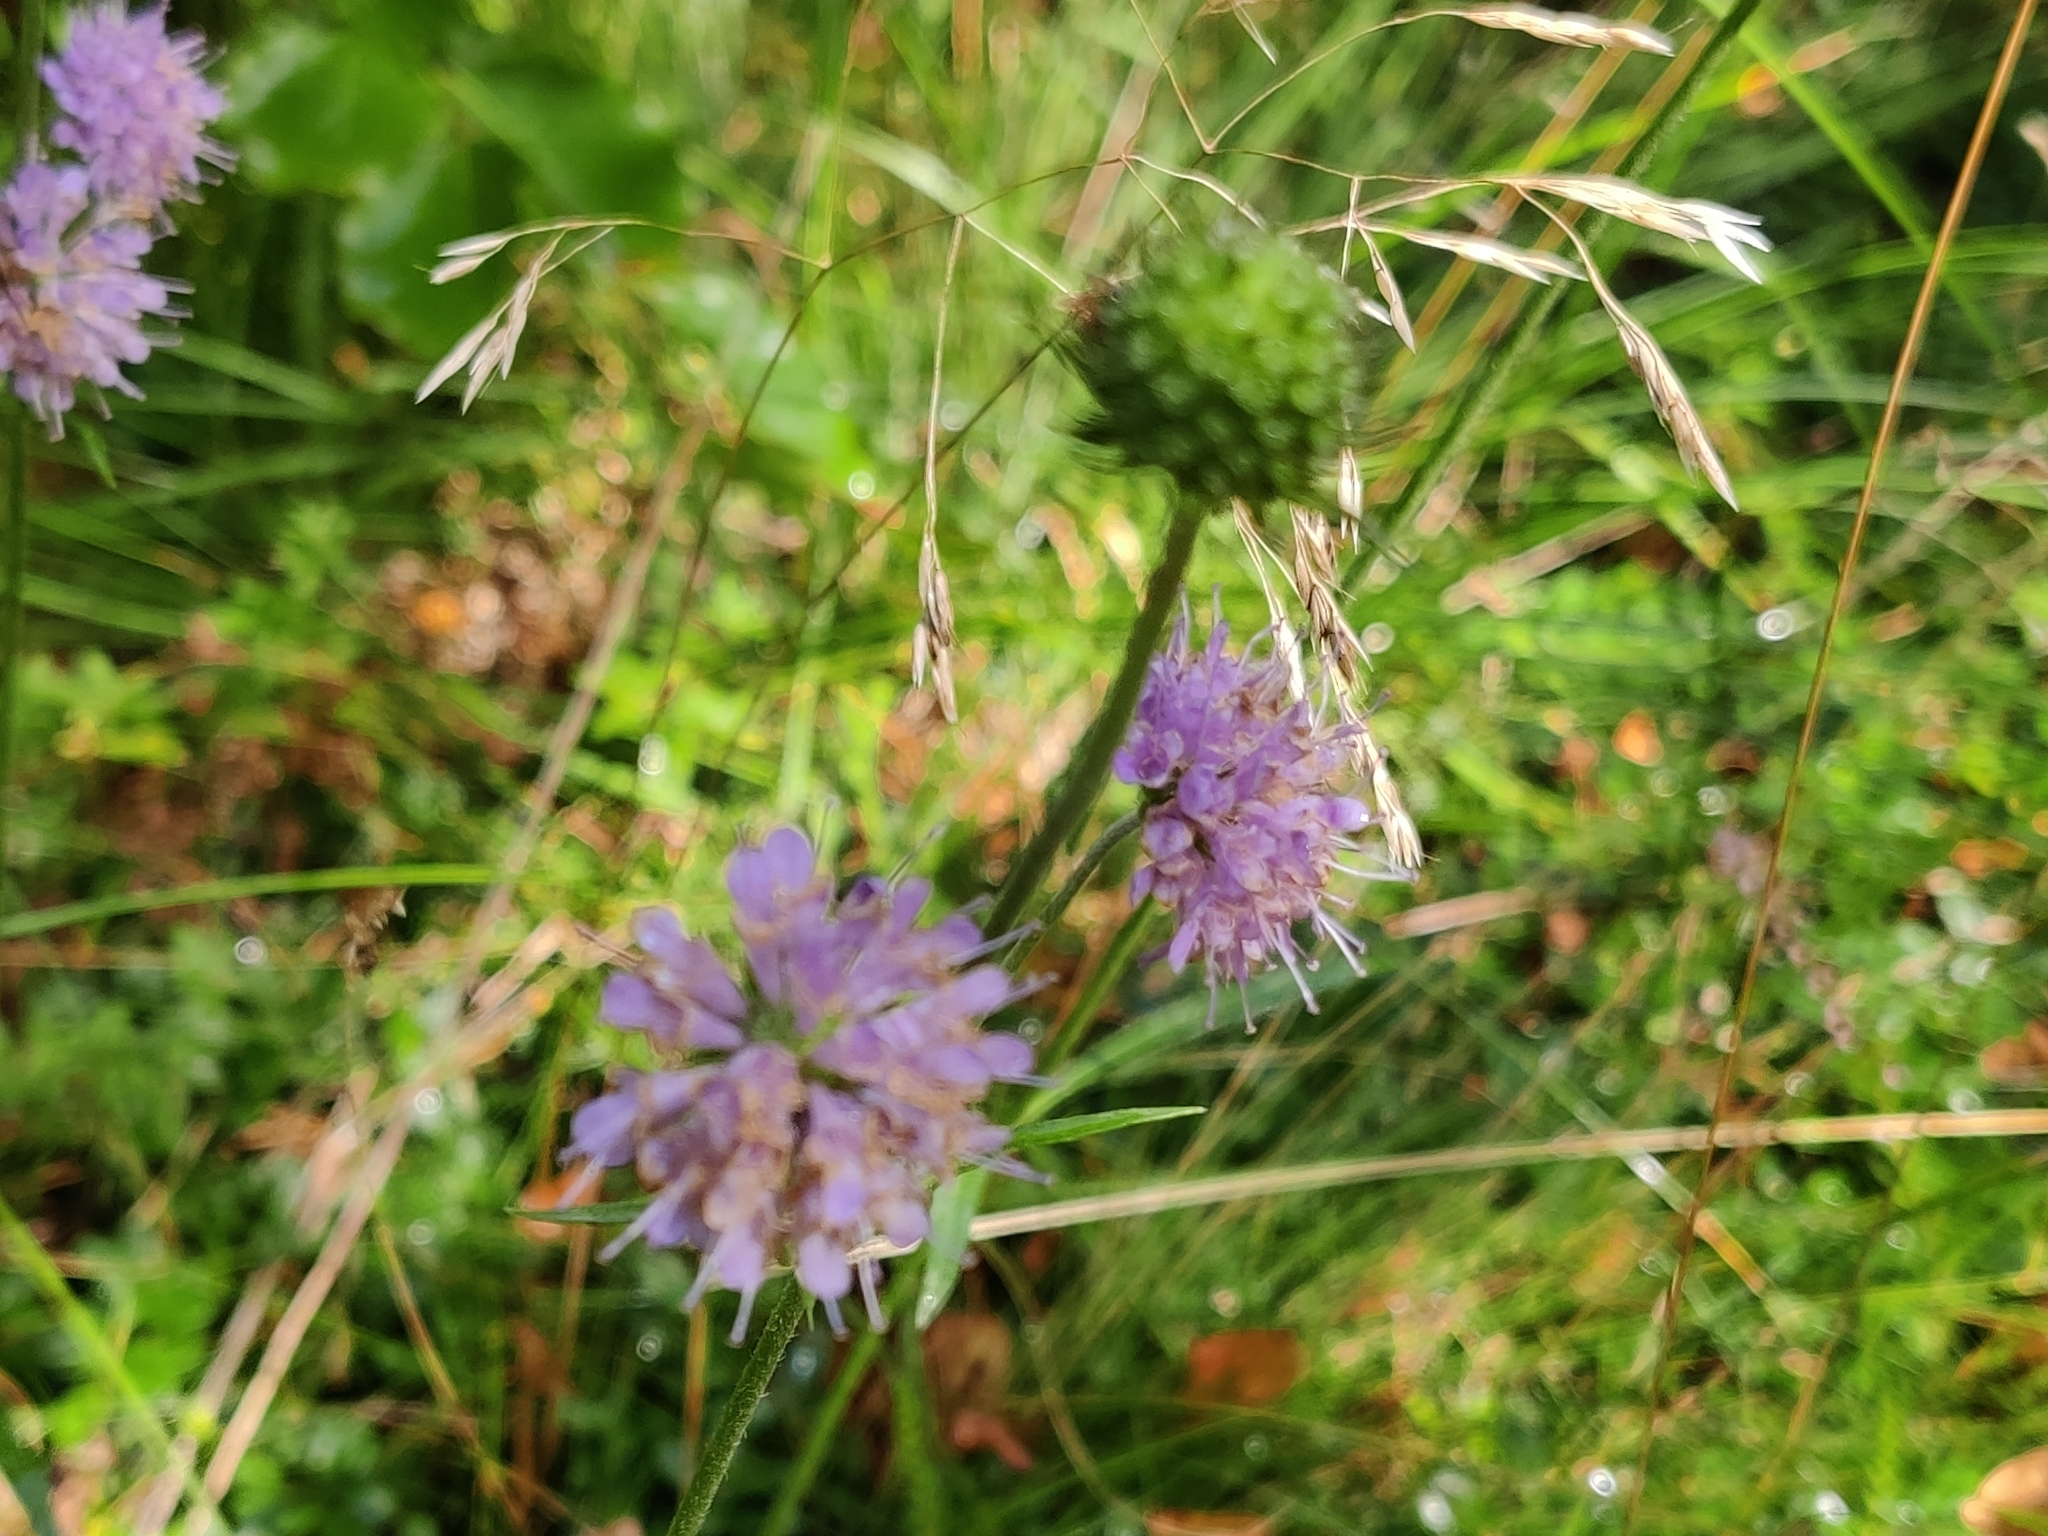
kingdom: Plantae
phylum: Tracheophyta
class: Magnoliopsida
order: Dipsacales
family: Caprifoliaceae
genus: Succisa
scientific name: Succisa pratensis
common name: Devil's-bit
